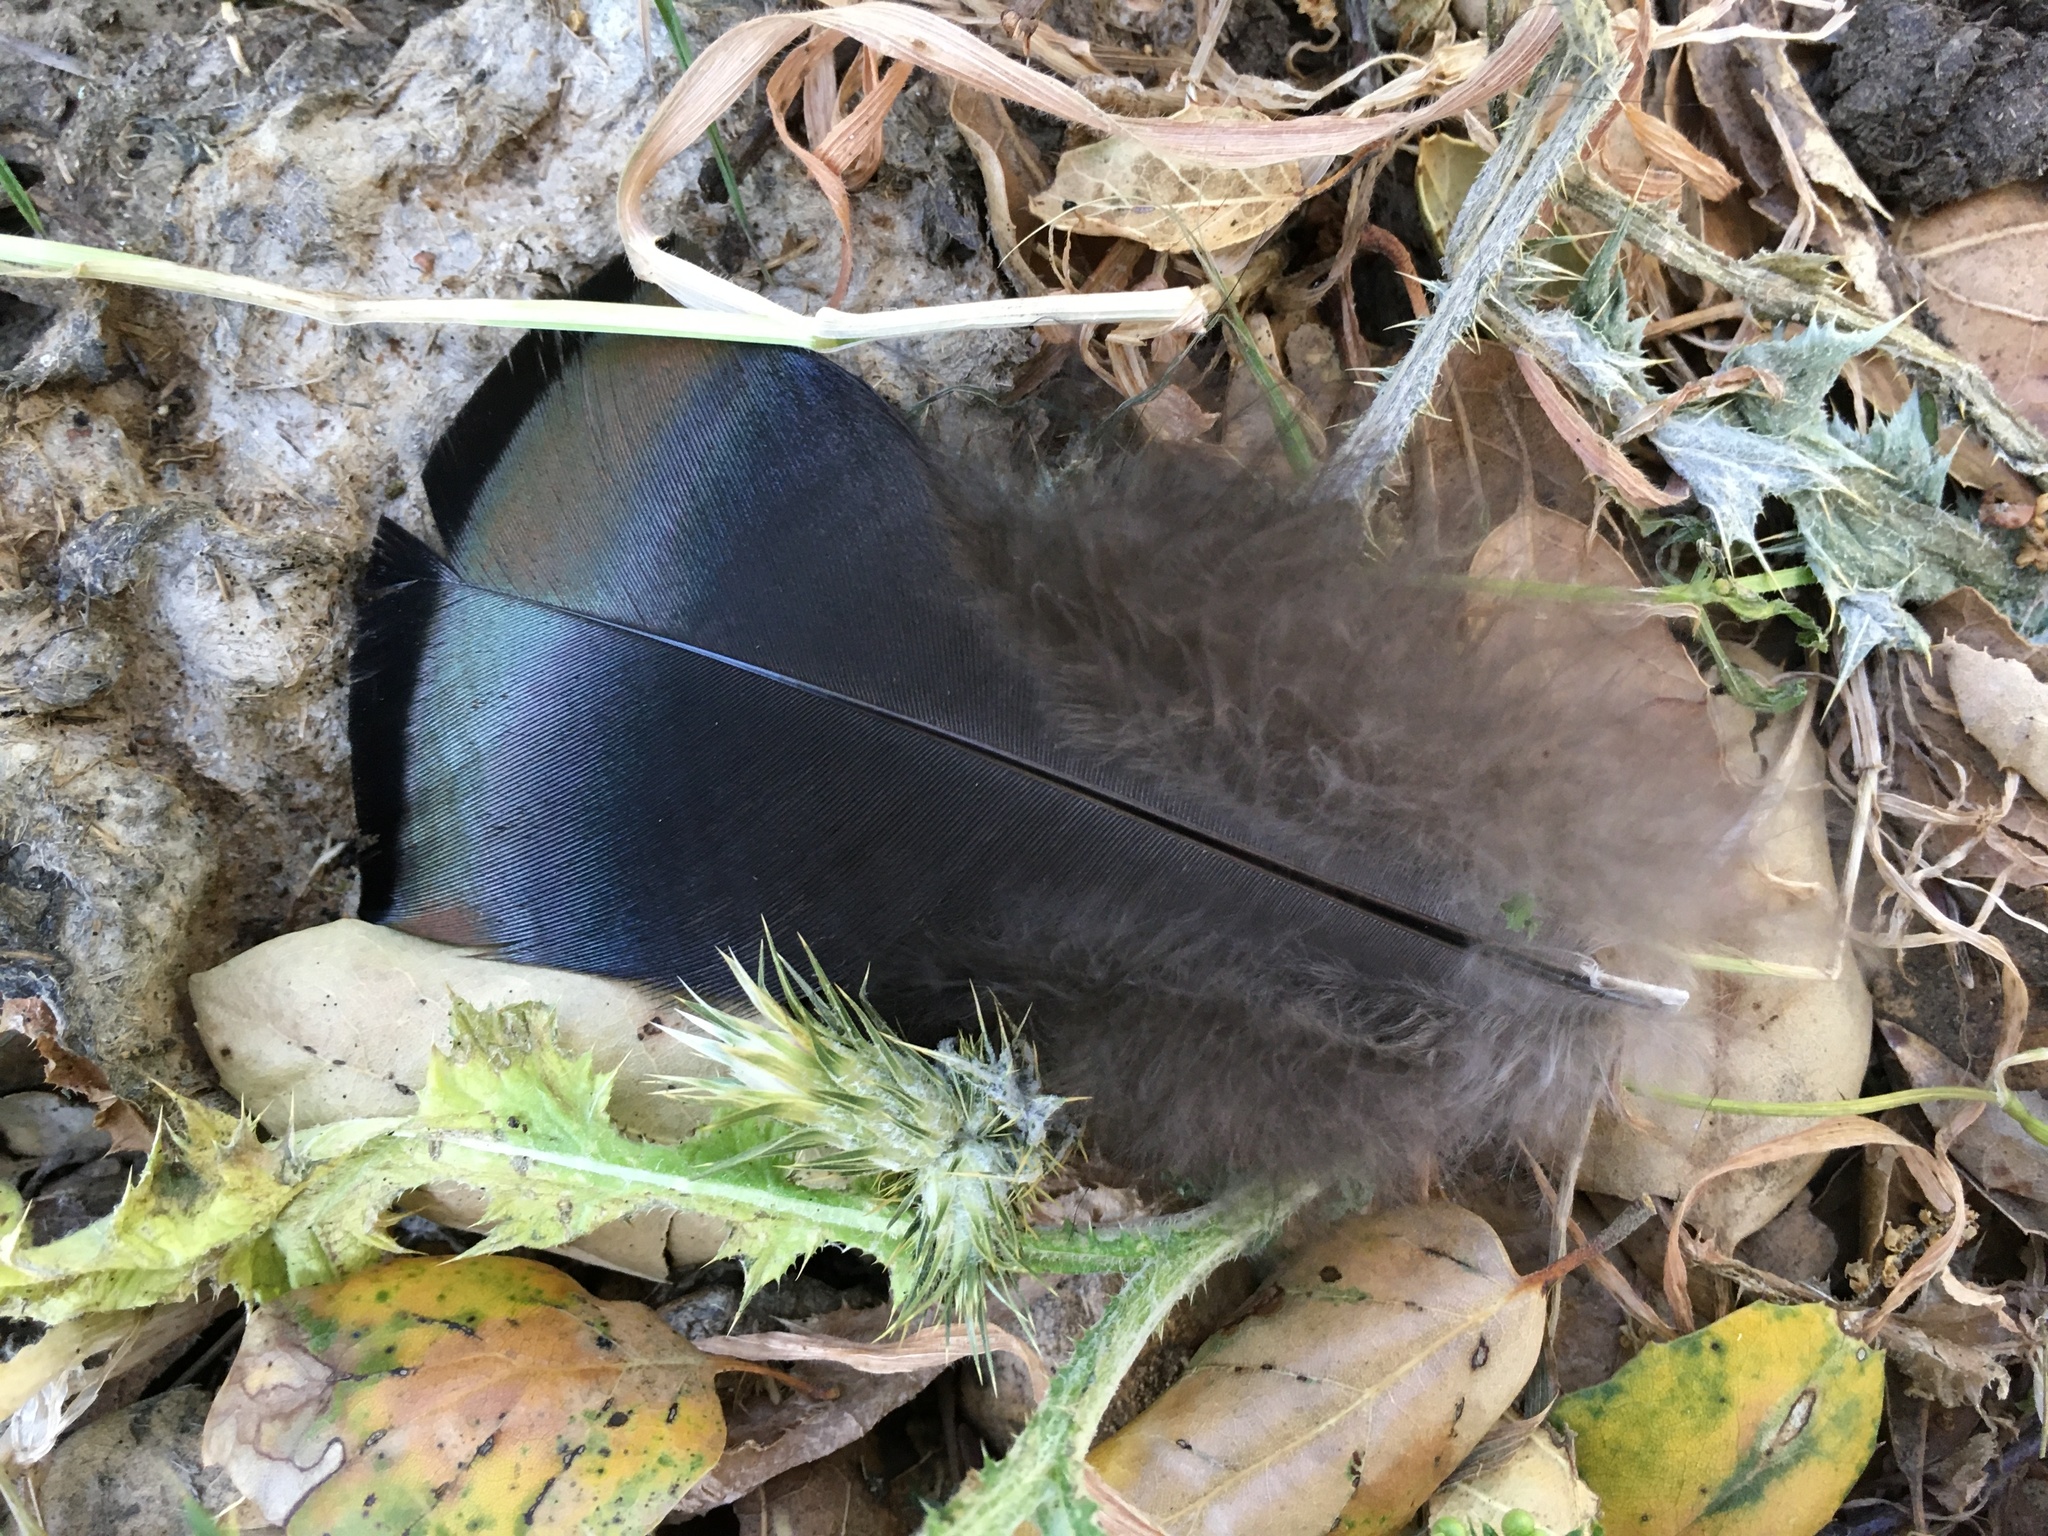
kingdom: Animalia
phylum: Chordata
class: Aves
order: Galliformes
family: Phasianidae
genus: Meleagris
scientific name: Meleagris gallopavo
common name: Wild turkey
